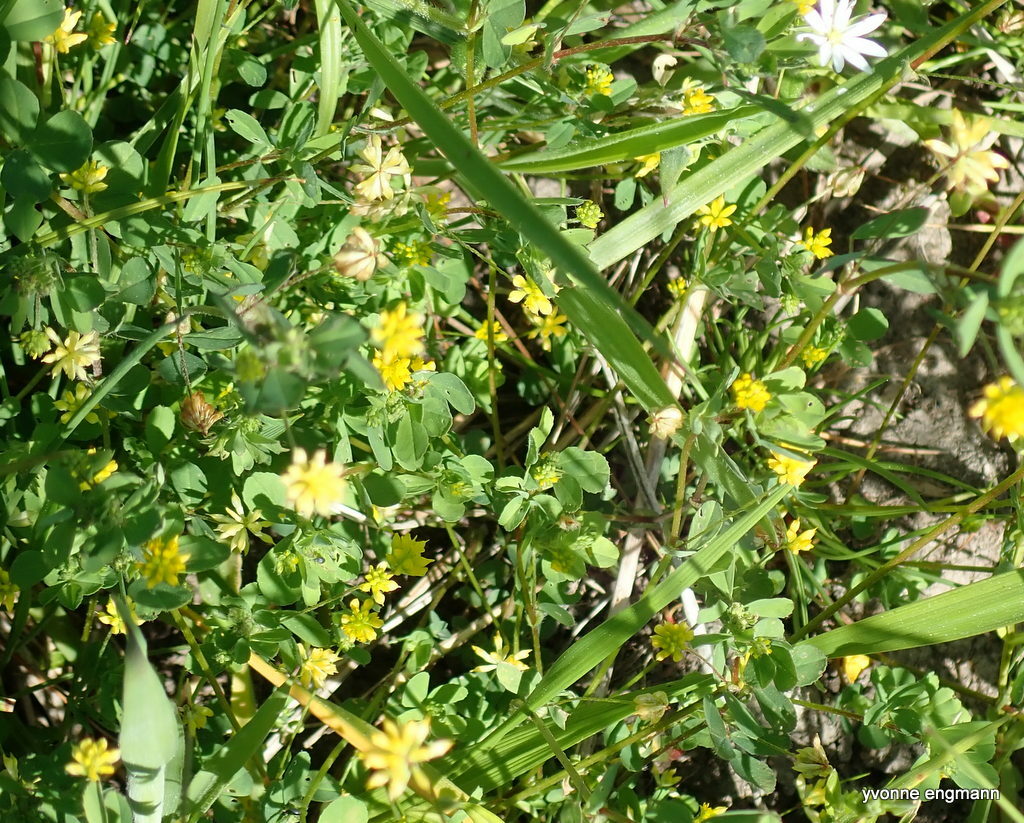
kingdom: Plantae
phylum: Tracheophyta
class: Magnoliopsida
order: Fabales
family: Fabaceae
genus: Trifolium
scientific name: Trifolium dubium
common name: Suckling clover
